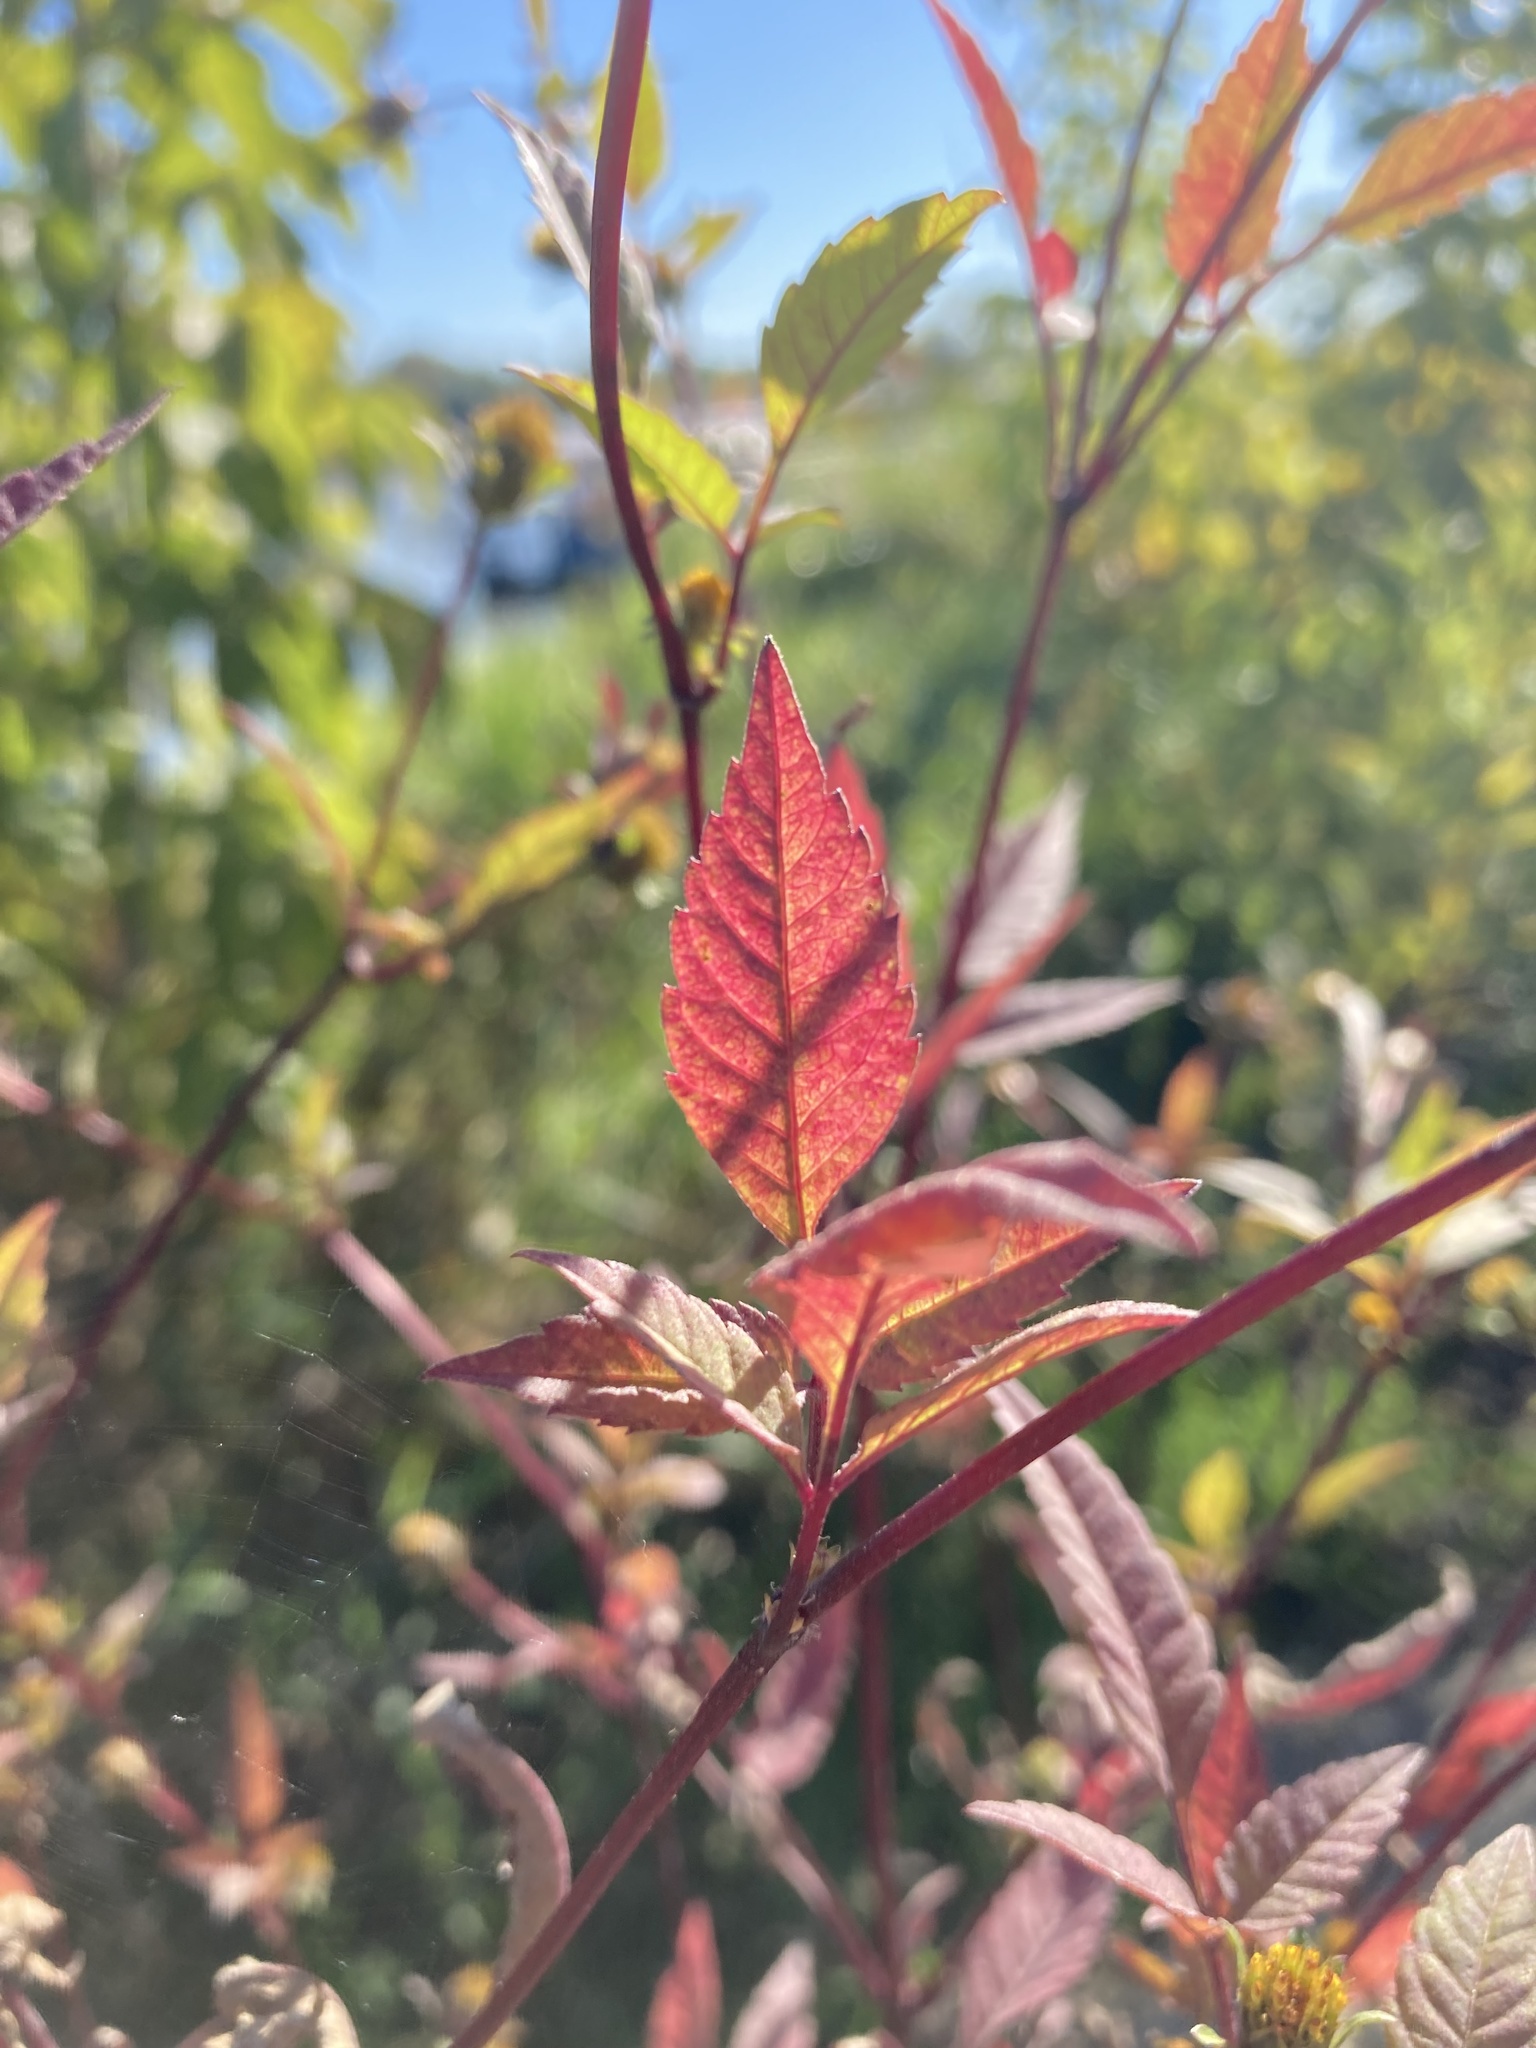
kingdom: Plantae
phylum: Tracheophyta
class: Magnoliopsida
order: Asterales
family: Asteraceae
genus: Bidens
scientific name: Bidens frondosa
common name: Beggarticks
